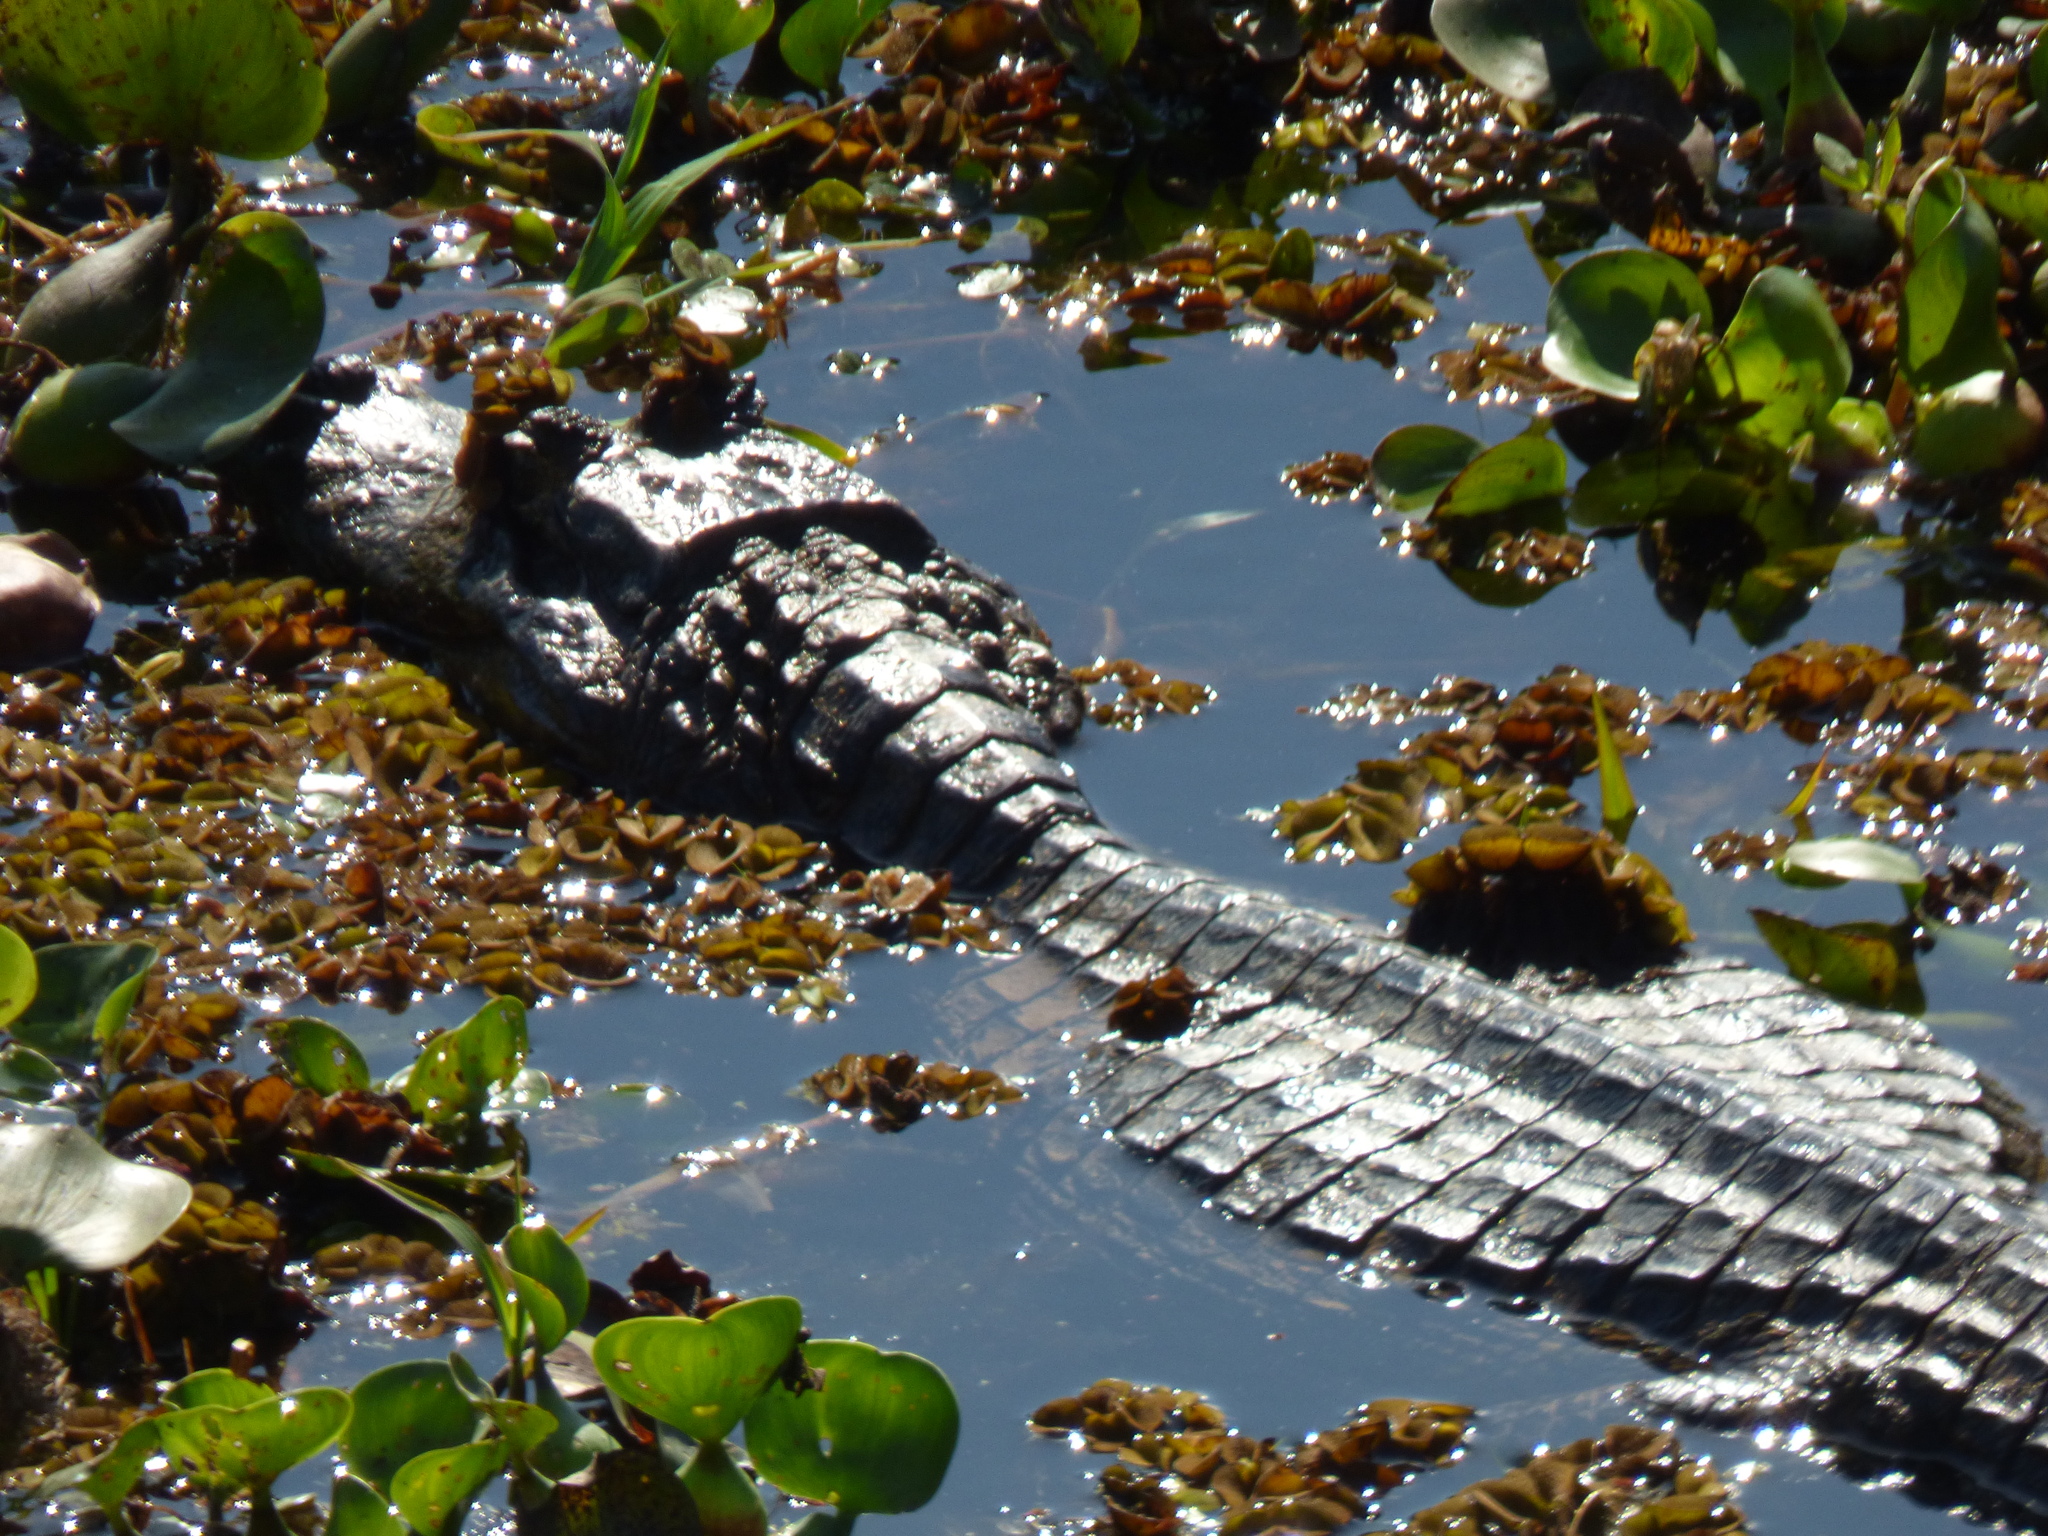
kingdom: Animalia
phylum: Chordata
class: Crocodylia
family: Alligatoridae
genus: Caiman
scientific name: Caiman yacare
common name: Yacare caiman
